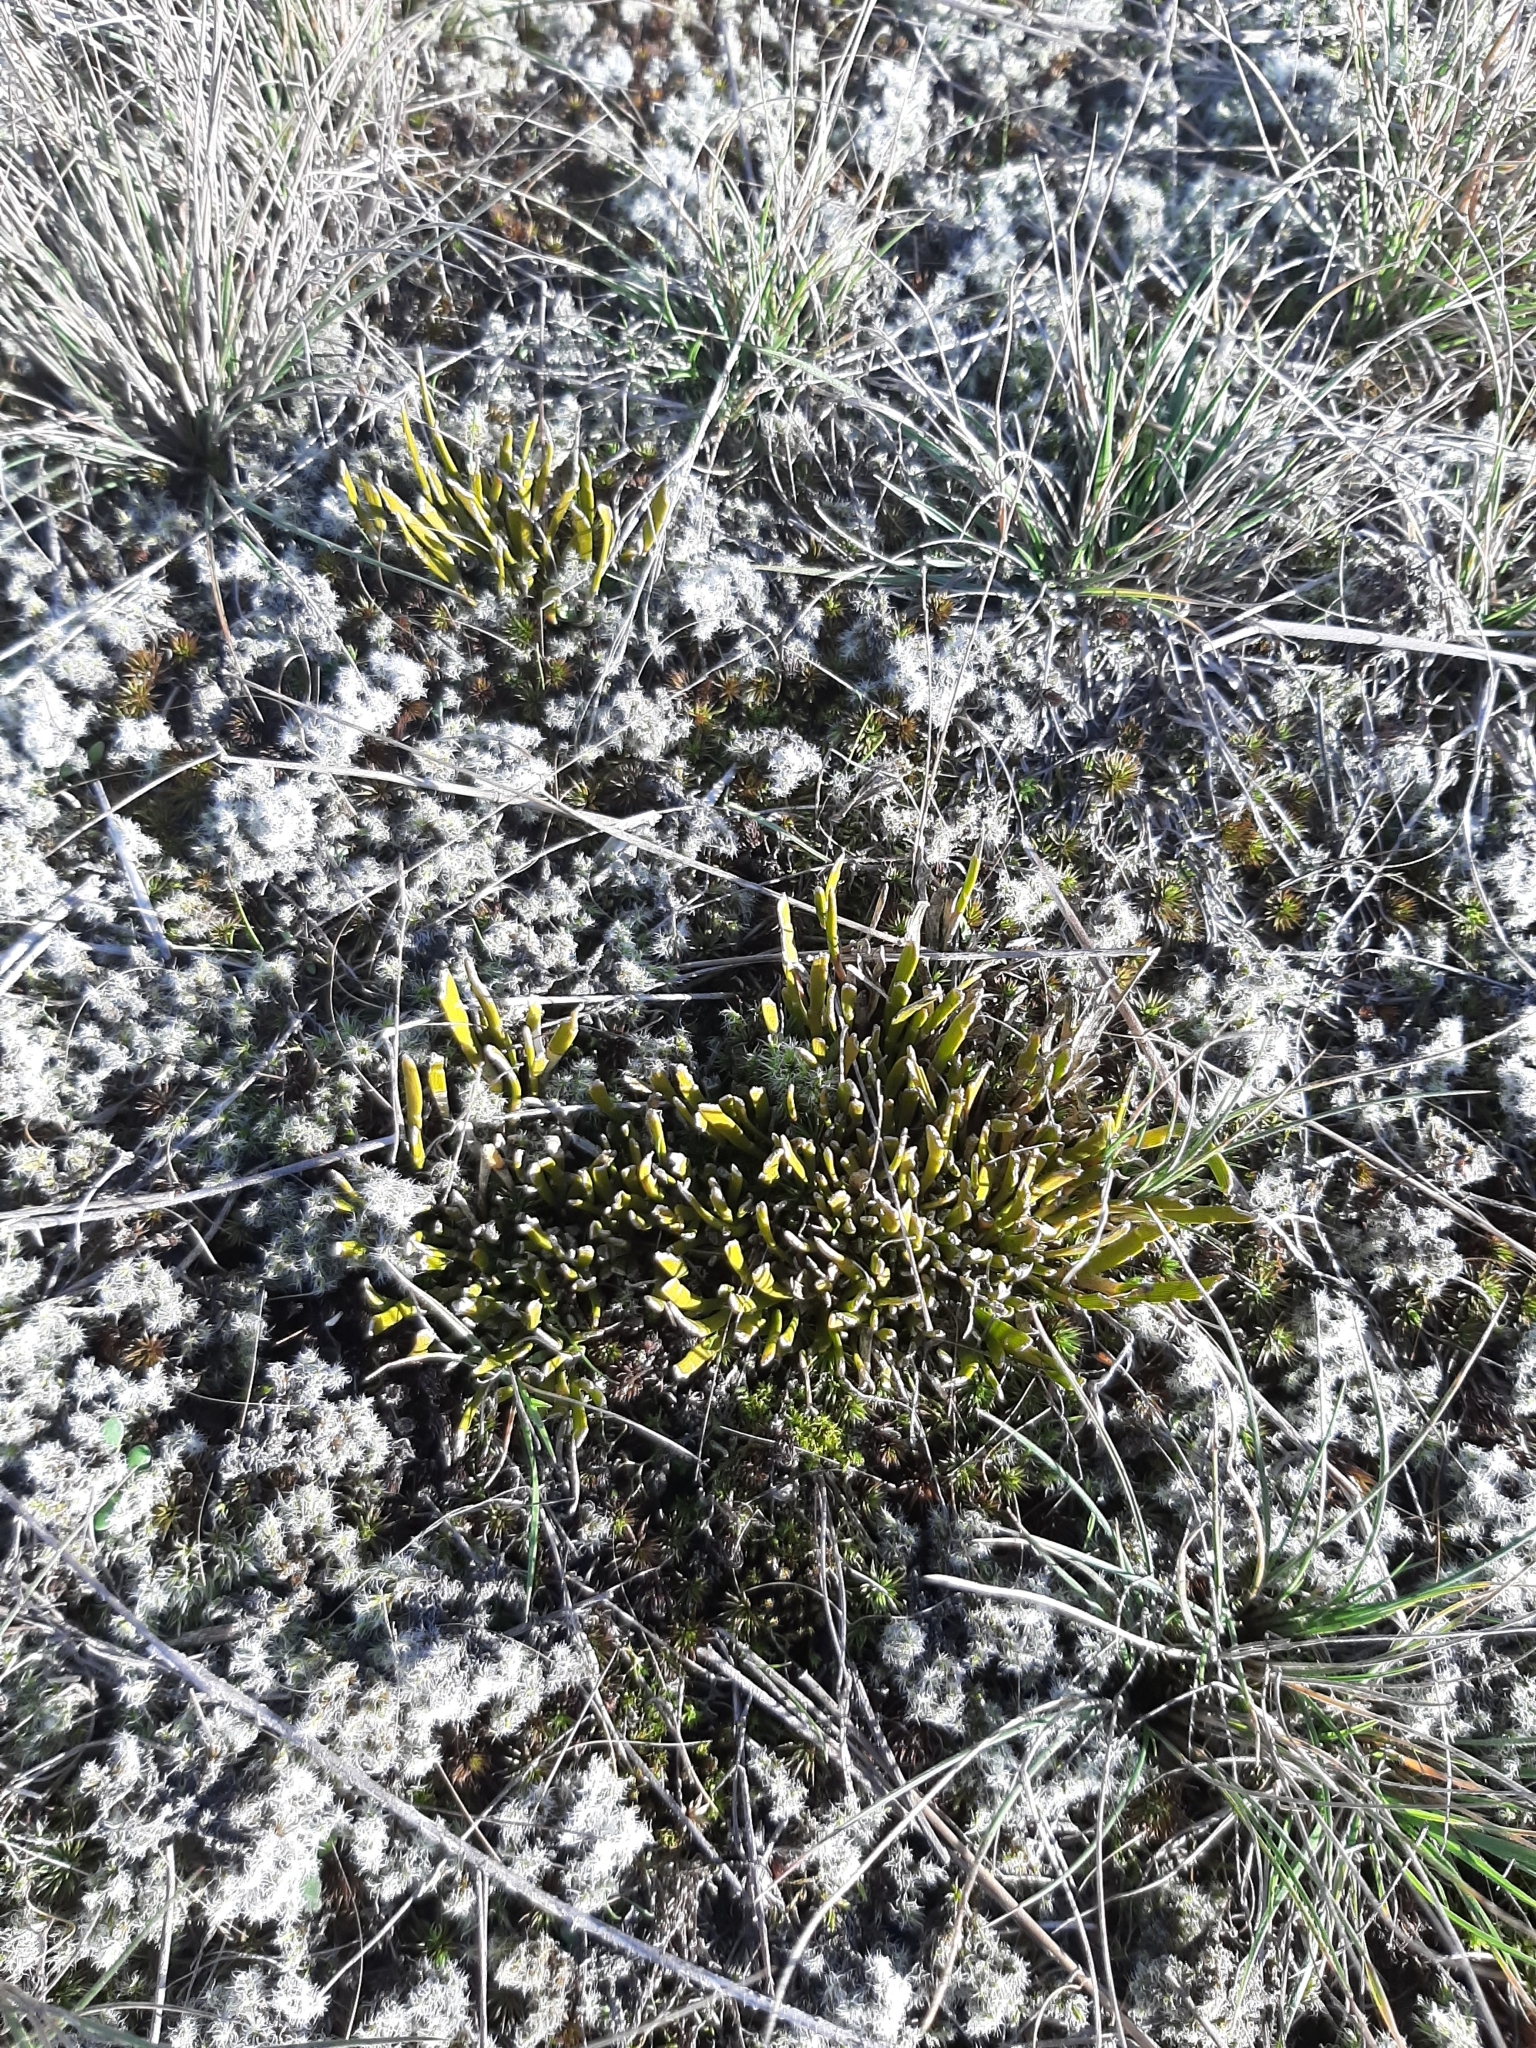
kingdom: Plantae
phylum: Tracheophyta
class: Magnoliopsida
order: Fabales
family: Fabaceae
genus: Carmichaelia
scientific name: Carmichaelia corrugata
